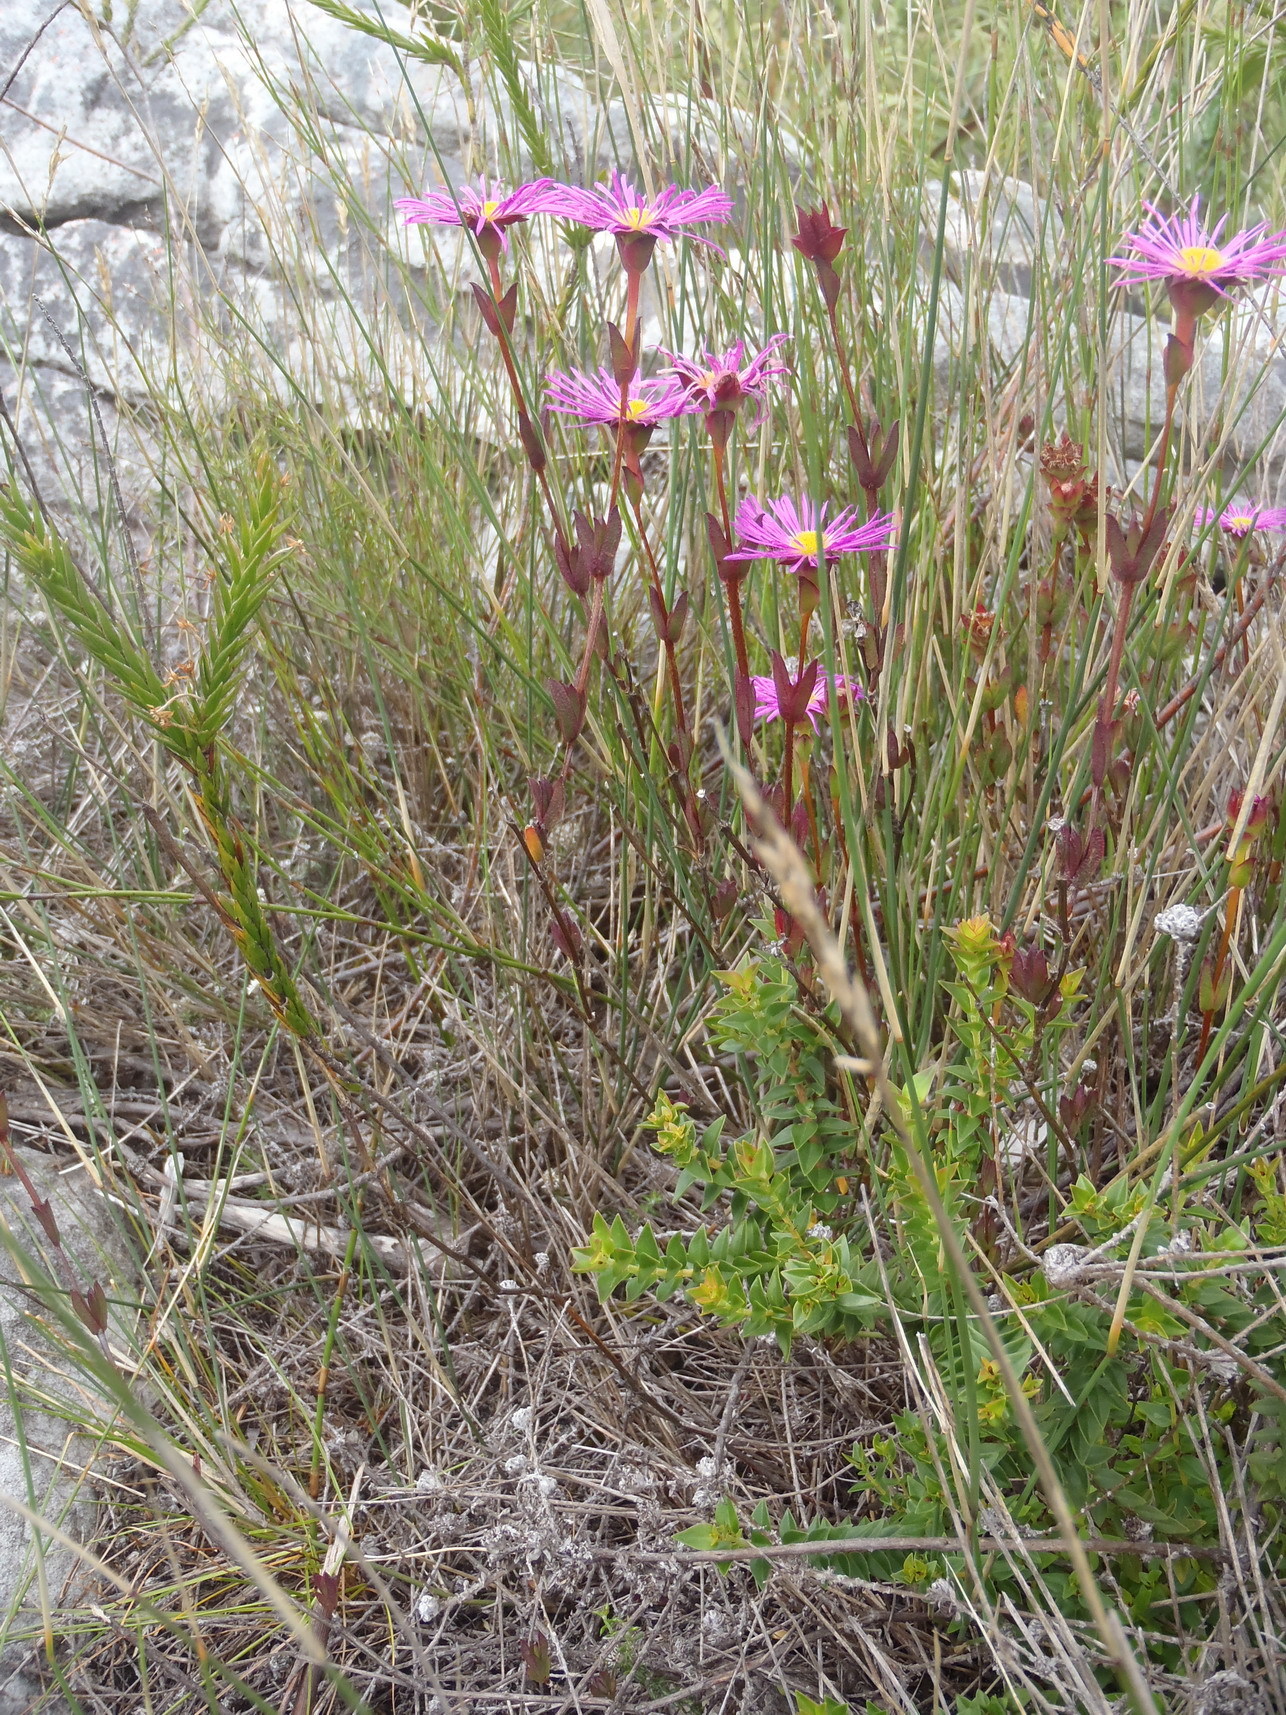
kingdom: Plantae
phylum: Tracheophyta
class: Magnoliopsida
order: Caryophyllales
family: Aizoaceae
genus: Erepsia
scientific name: Erepsia anceps
